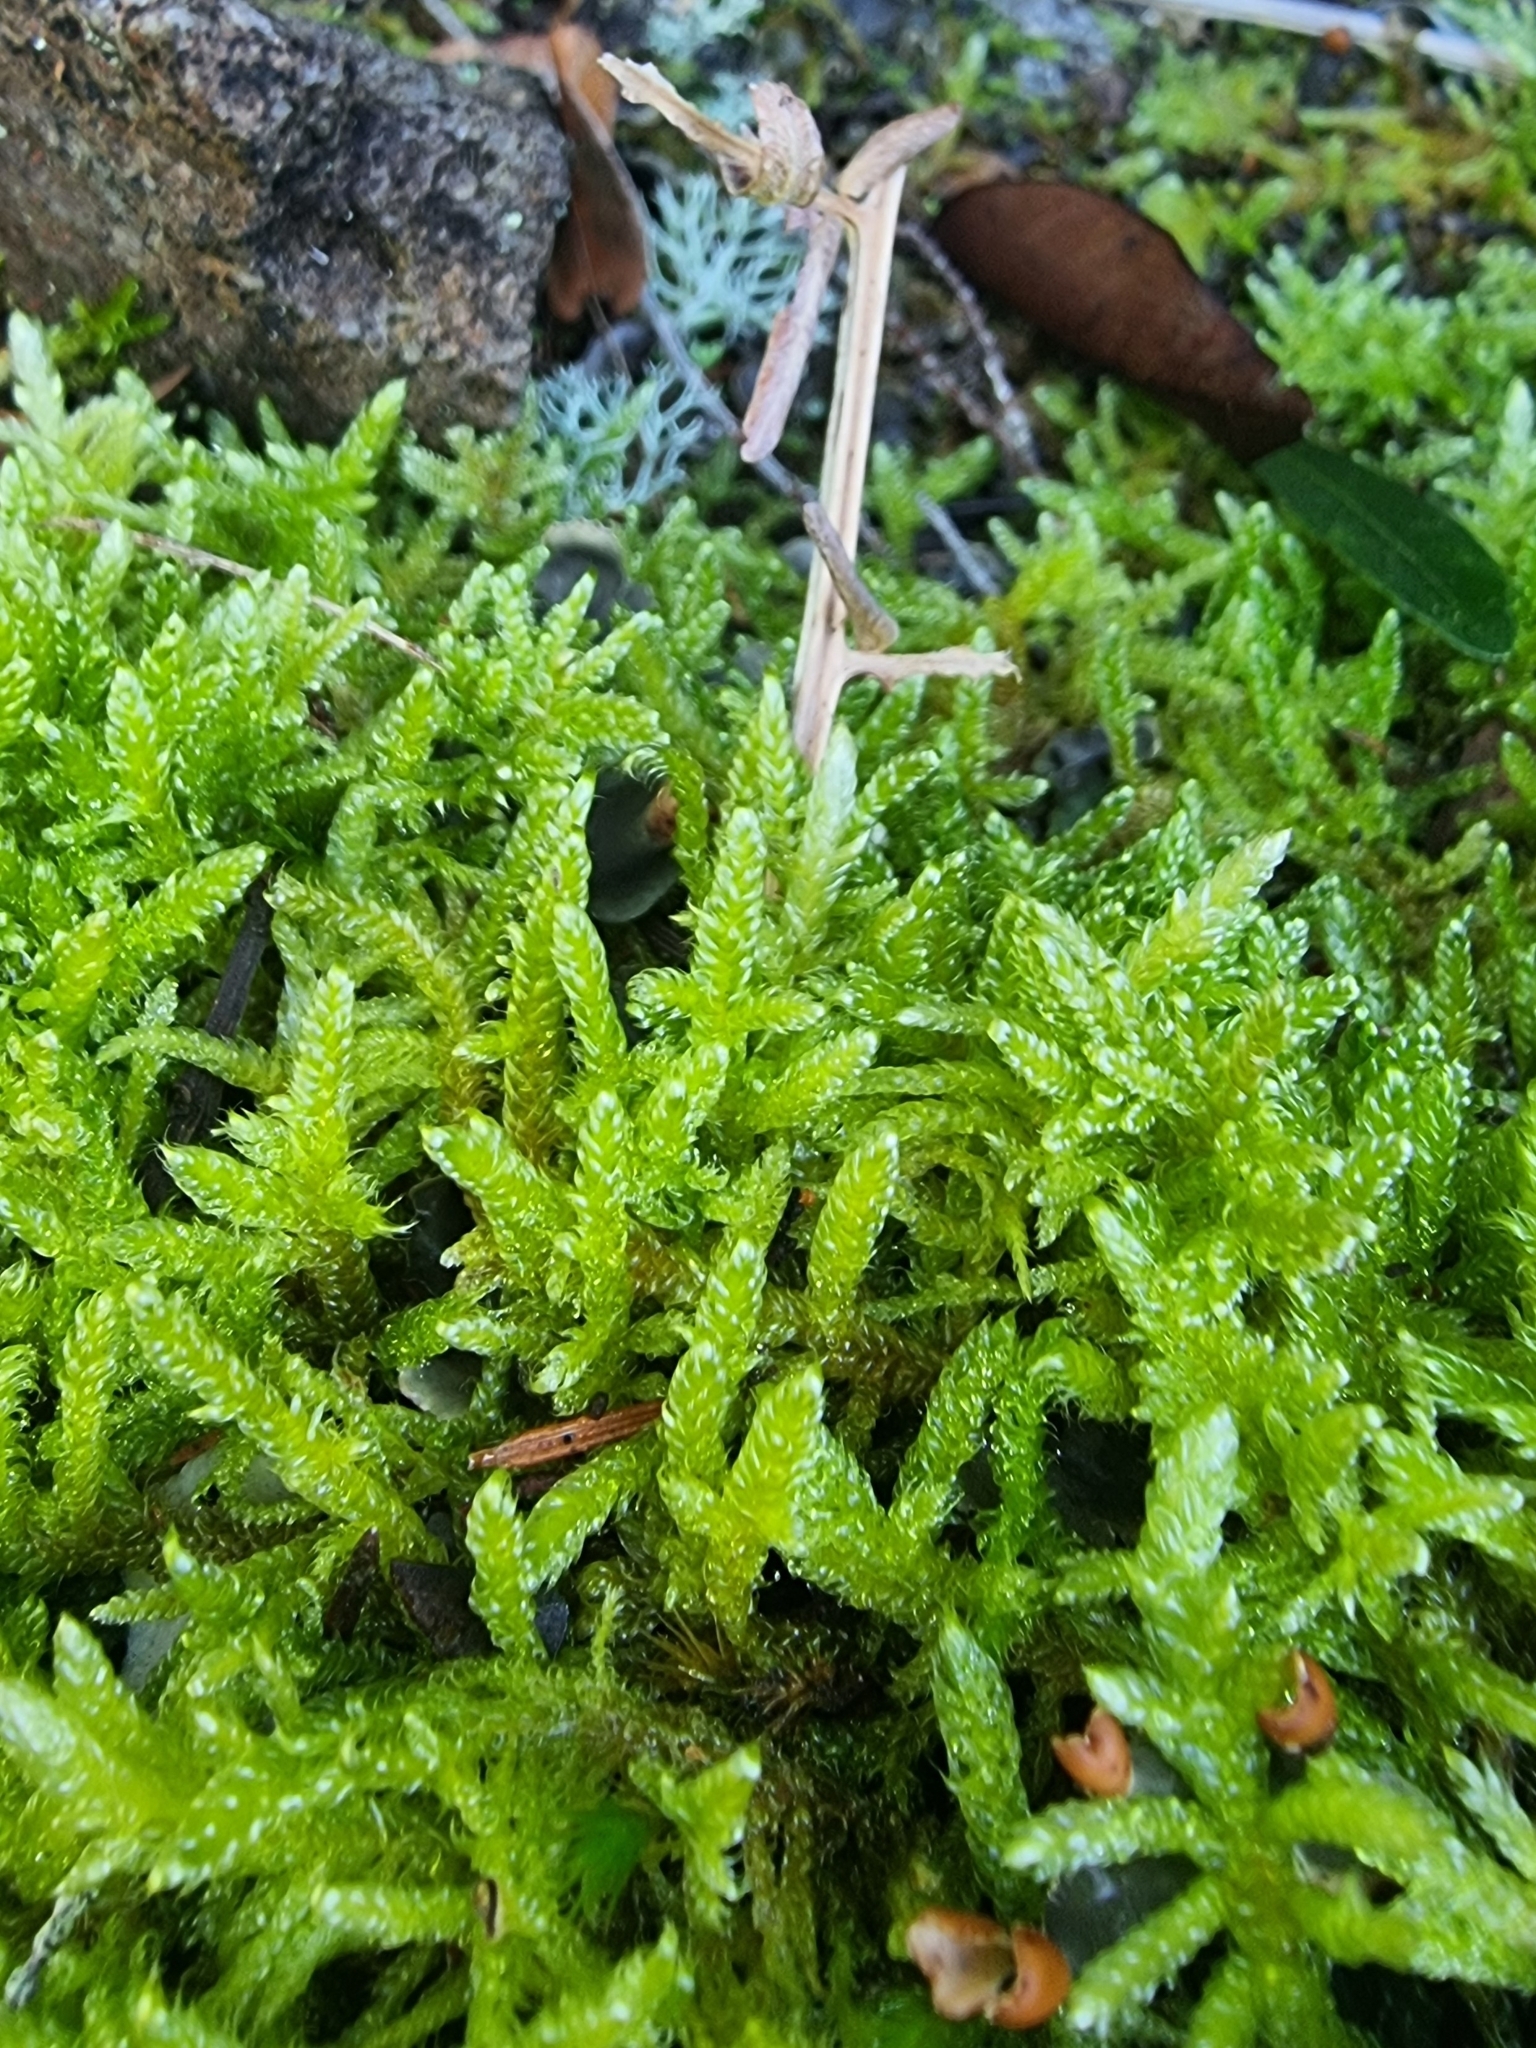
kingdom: Plantae
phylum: Bryophyta
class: Bryopsida
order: Hypnales
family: Hypnaceae
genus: Hypnum
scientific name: Hypnum cupressiforme
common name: Cypress-leaved plait-moss
